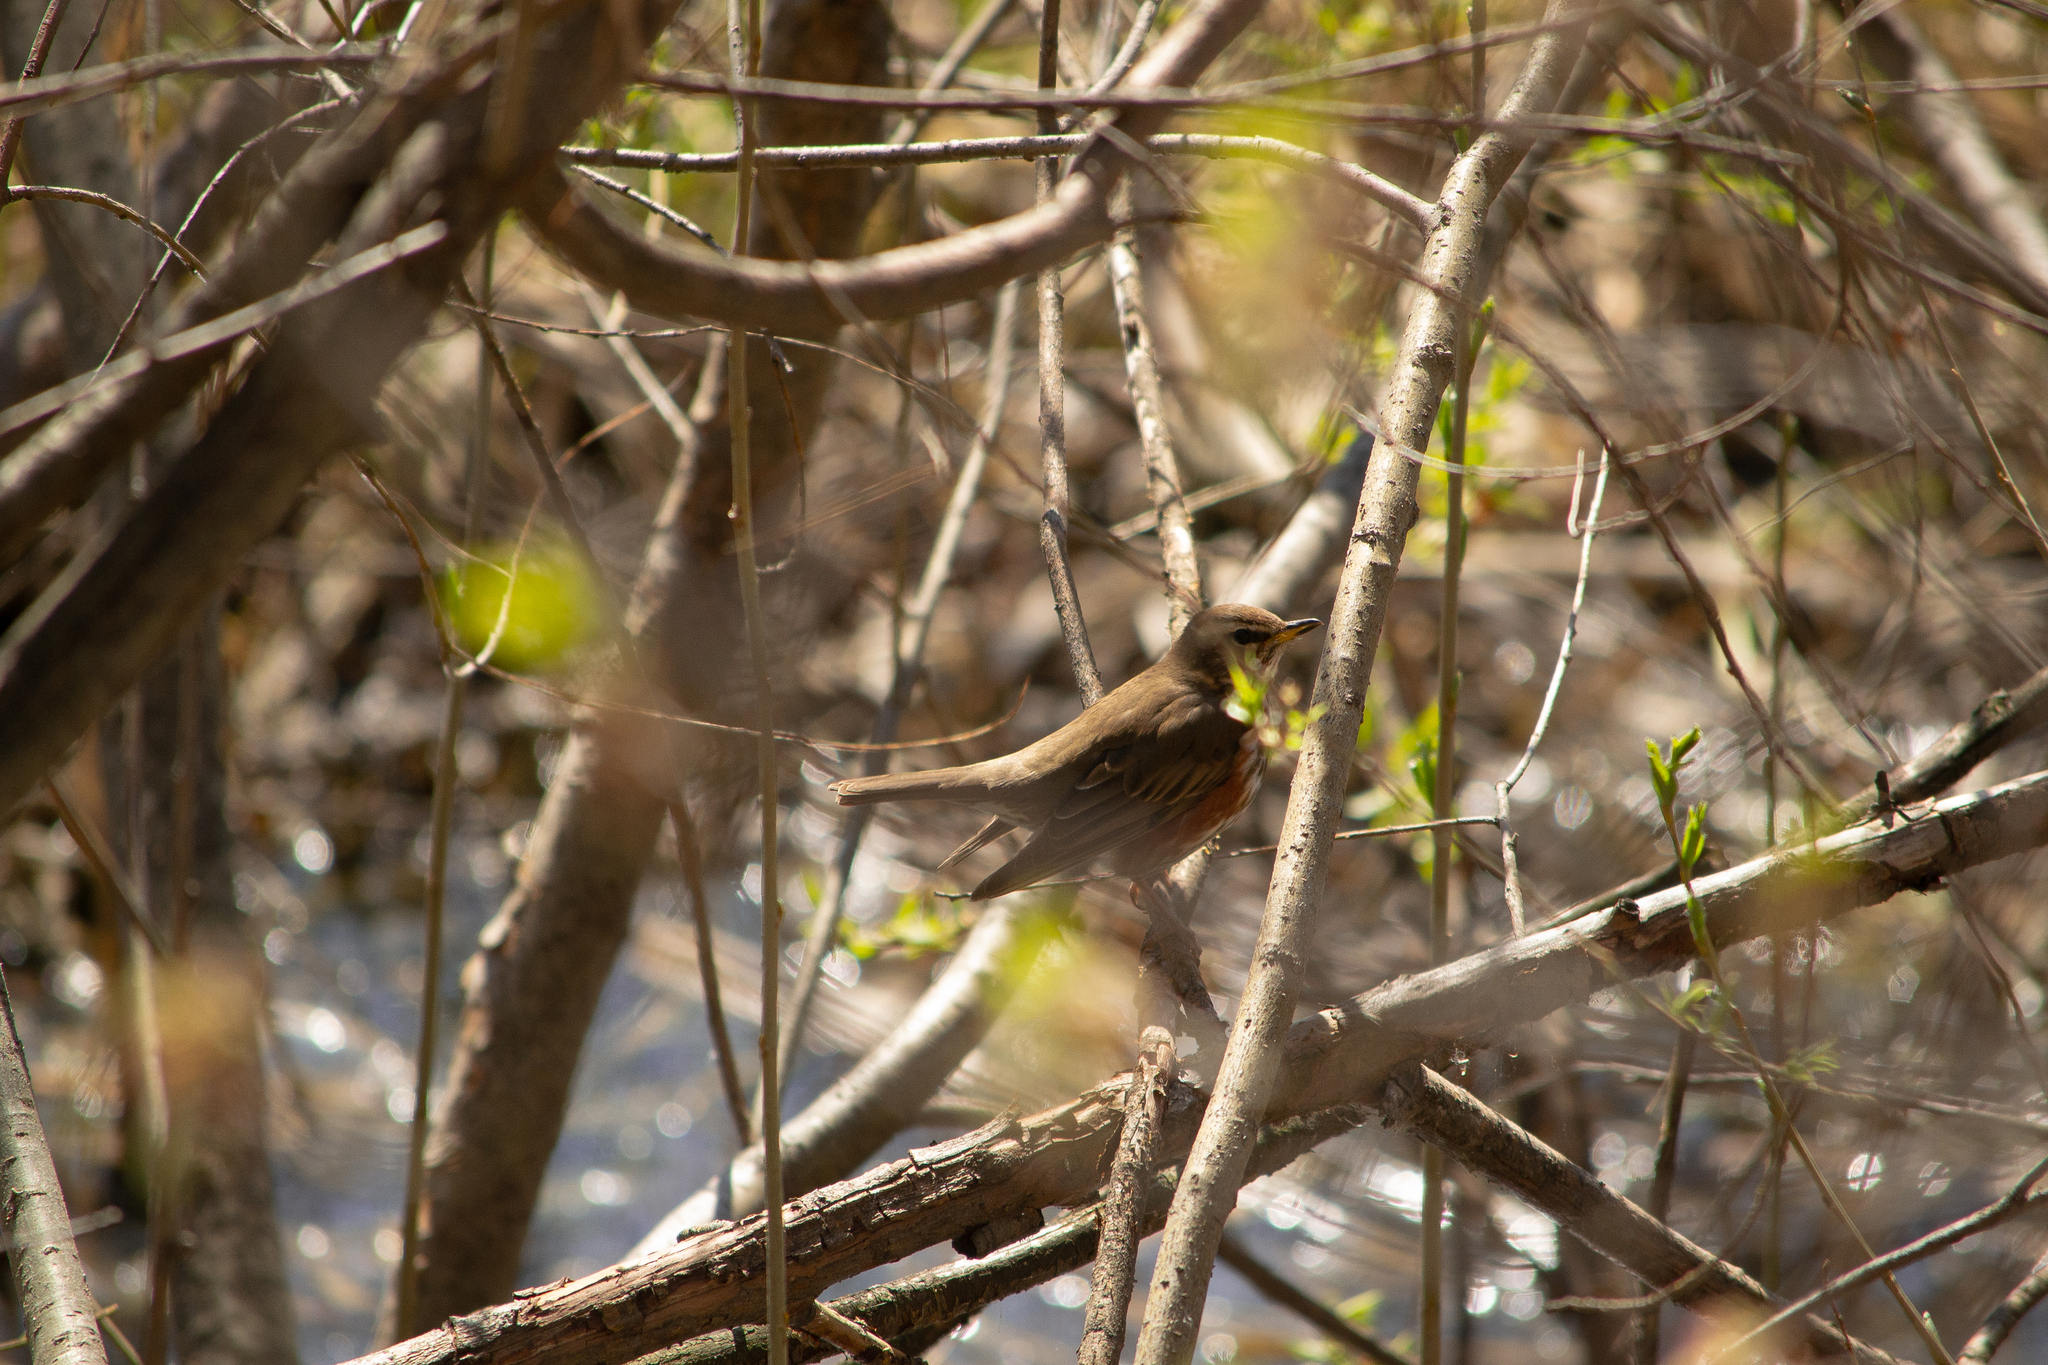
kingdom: Animalia
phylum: Chordata
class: Aves
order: Passeriformes
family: Turdidae
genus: Turdus
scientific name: Turdus iliacus
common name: Redwing
